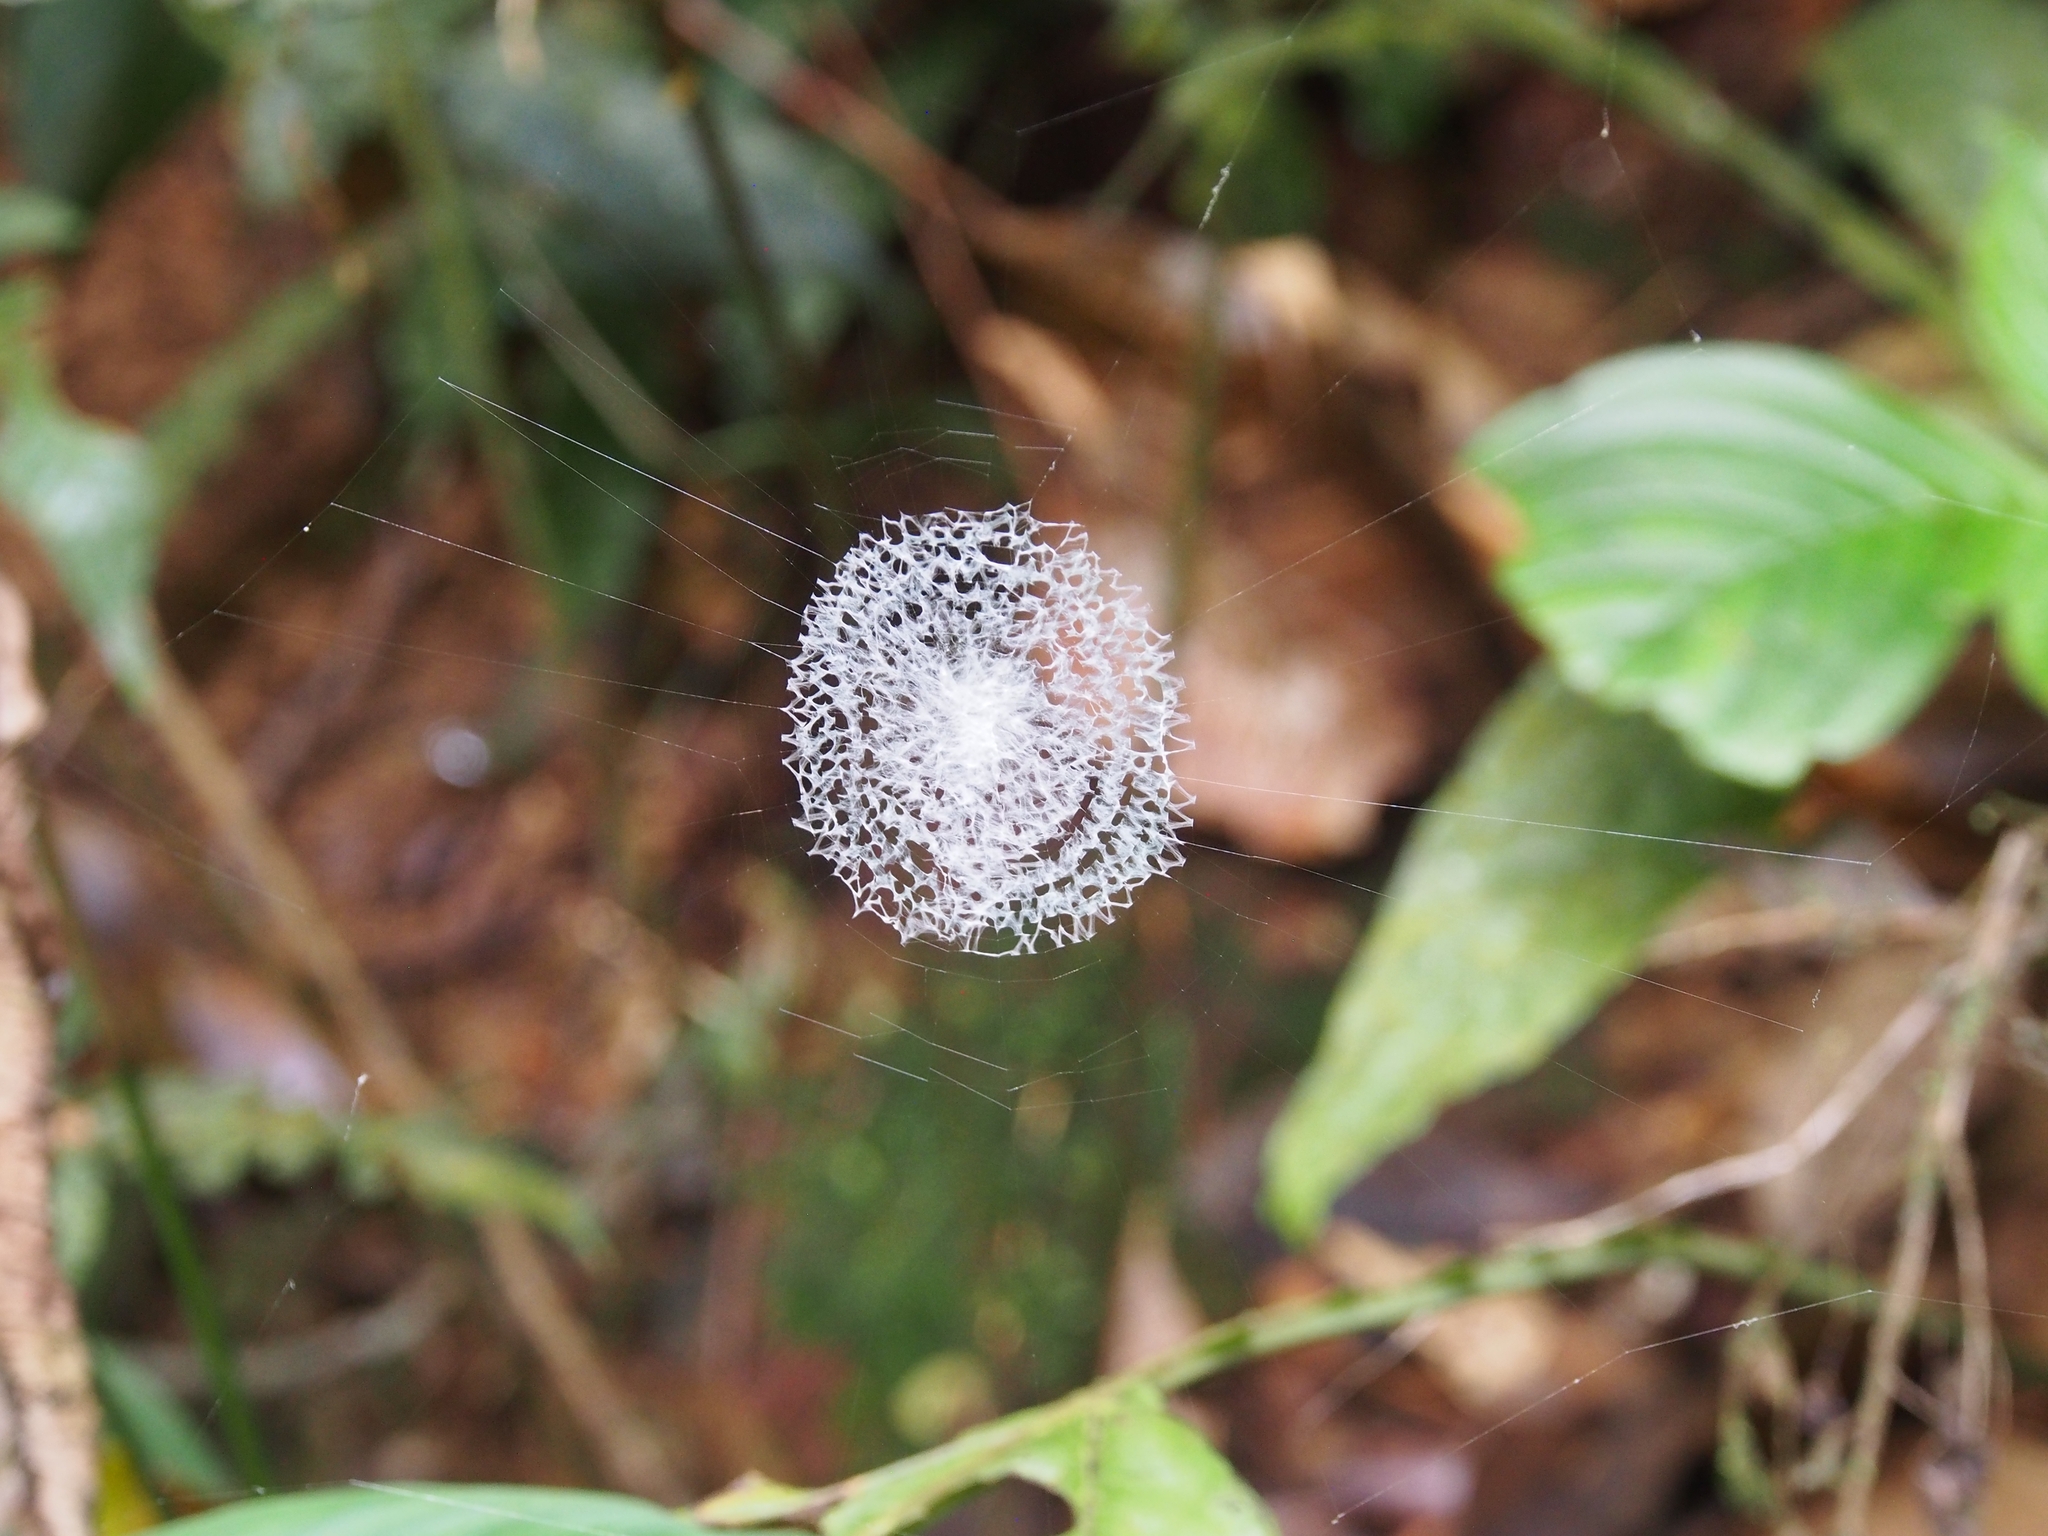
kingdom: Animalia
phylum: Arthropoda
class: Arachnida
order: Araneae
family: Araneidae
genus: Argiope
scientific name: Argiope submaronica
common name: Orb weavers
